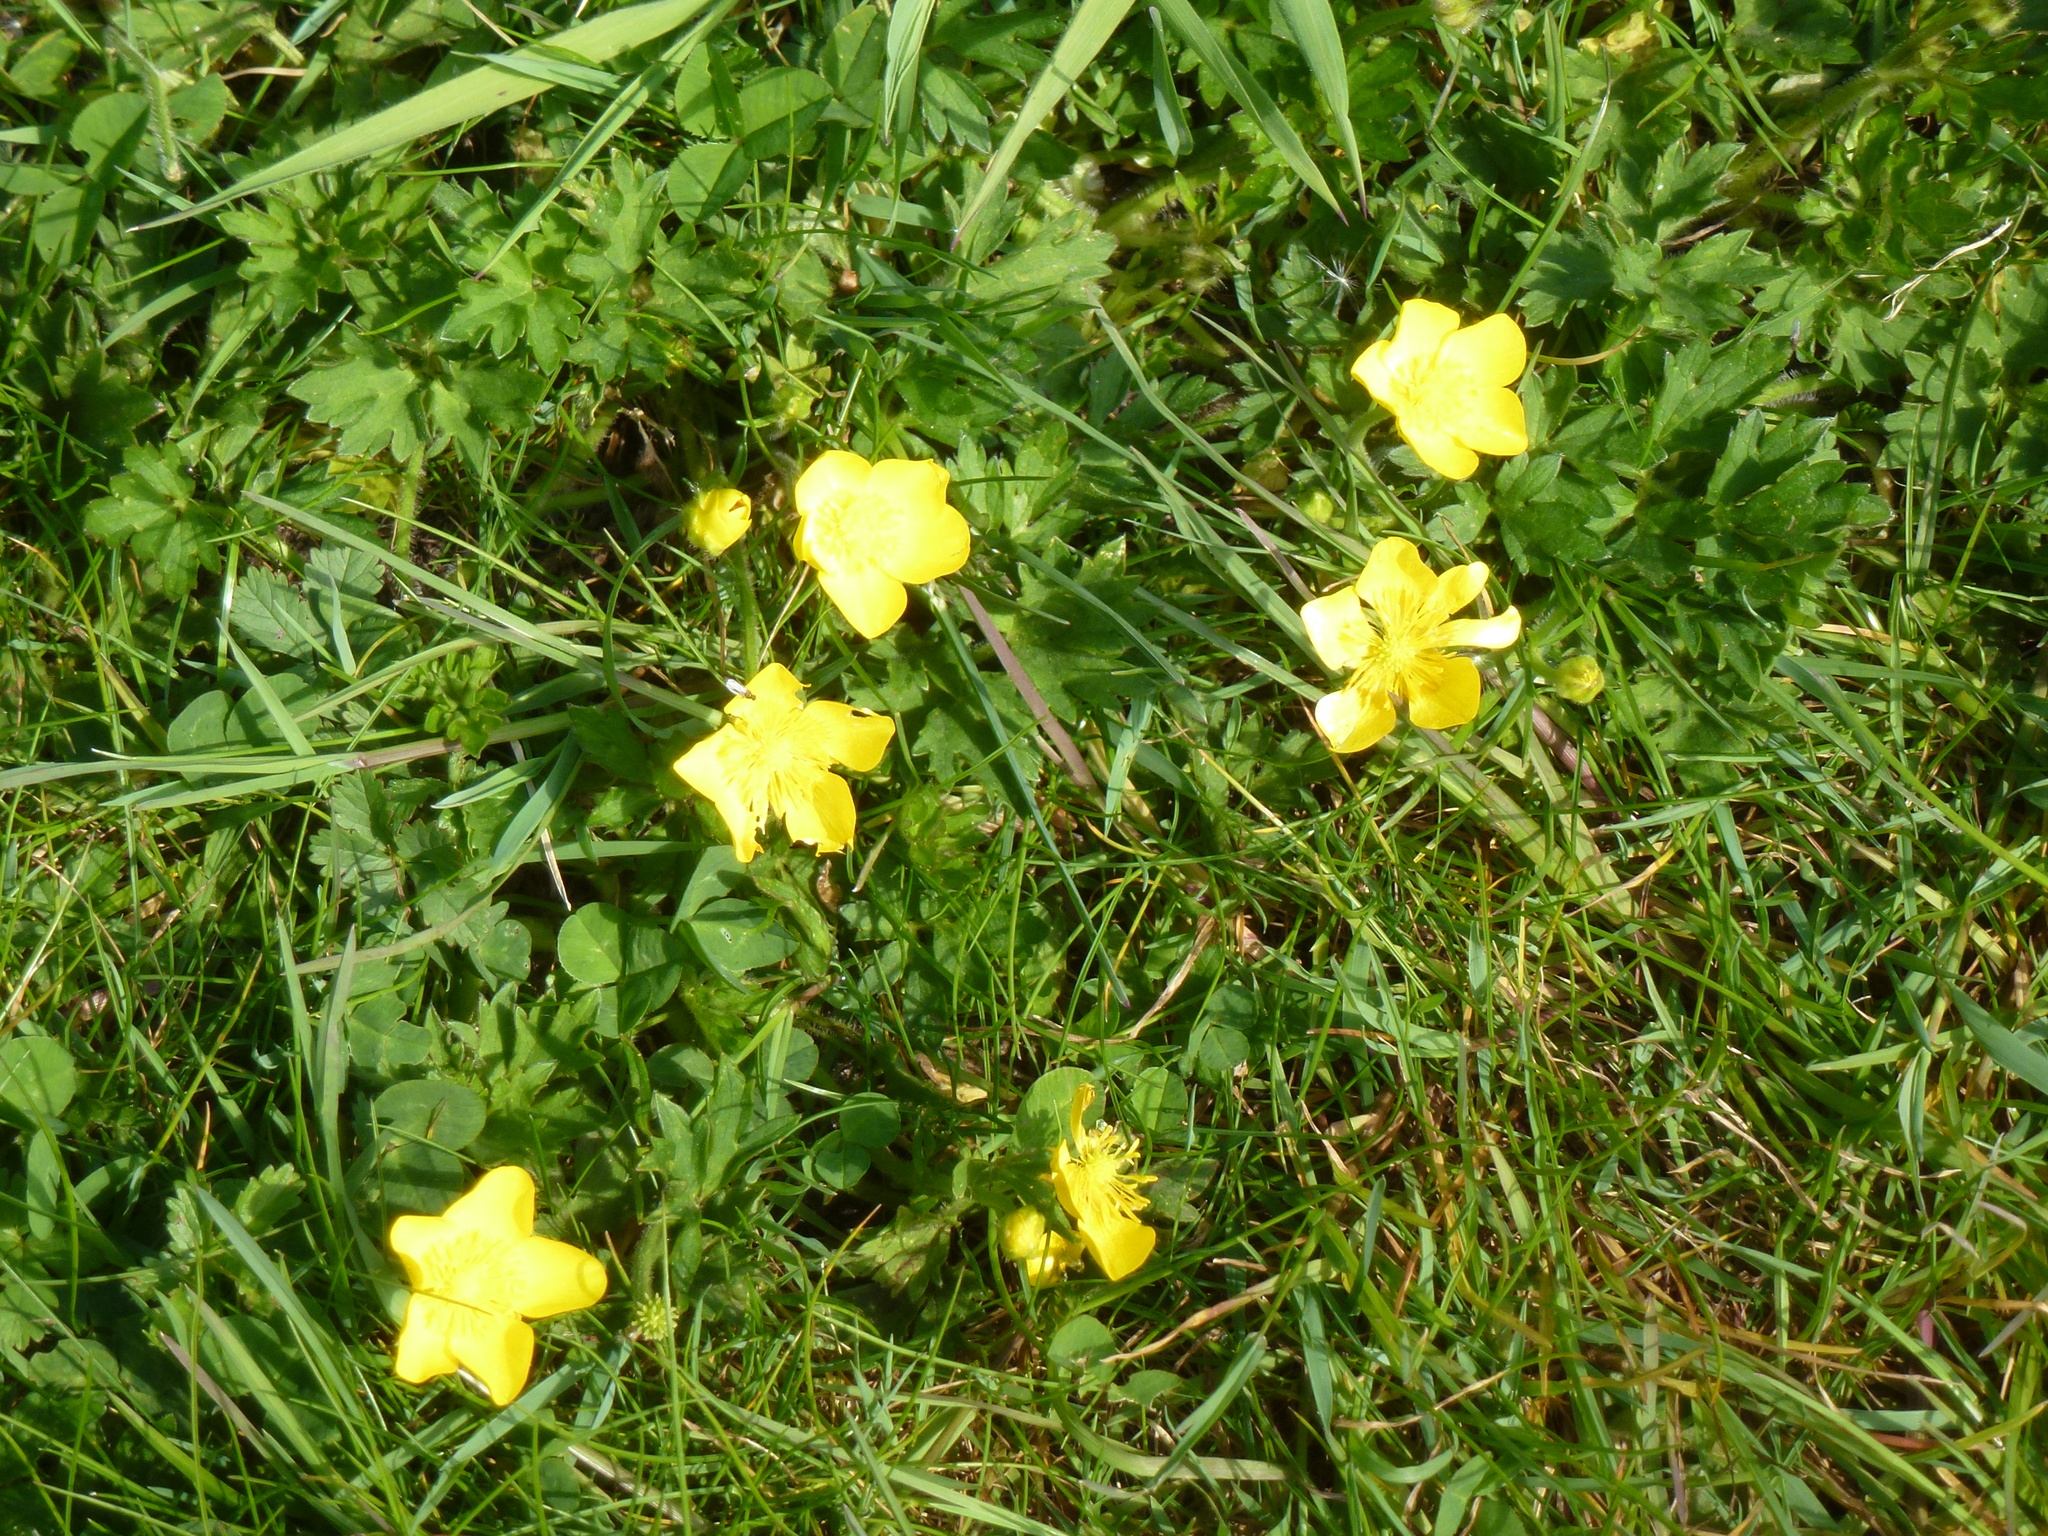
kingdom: Plantae
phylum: Tracheophyta
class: Magnoliopsida
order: Ranunculales
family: Ranunculaceae
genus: Ranunculus
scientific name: Ranunculus repens
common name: Creeping buttercup
